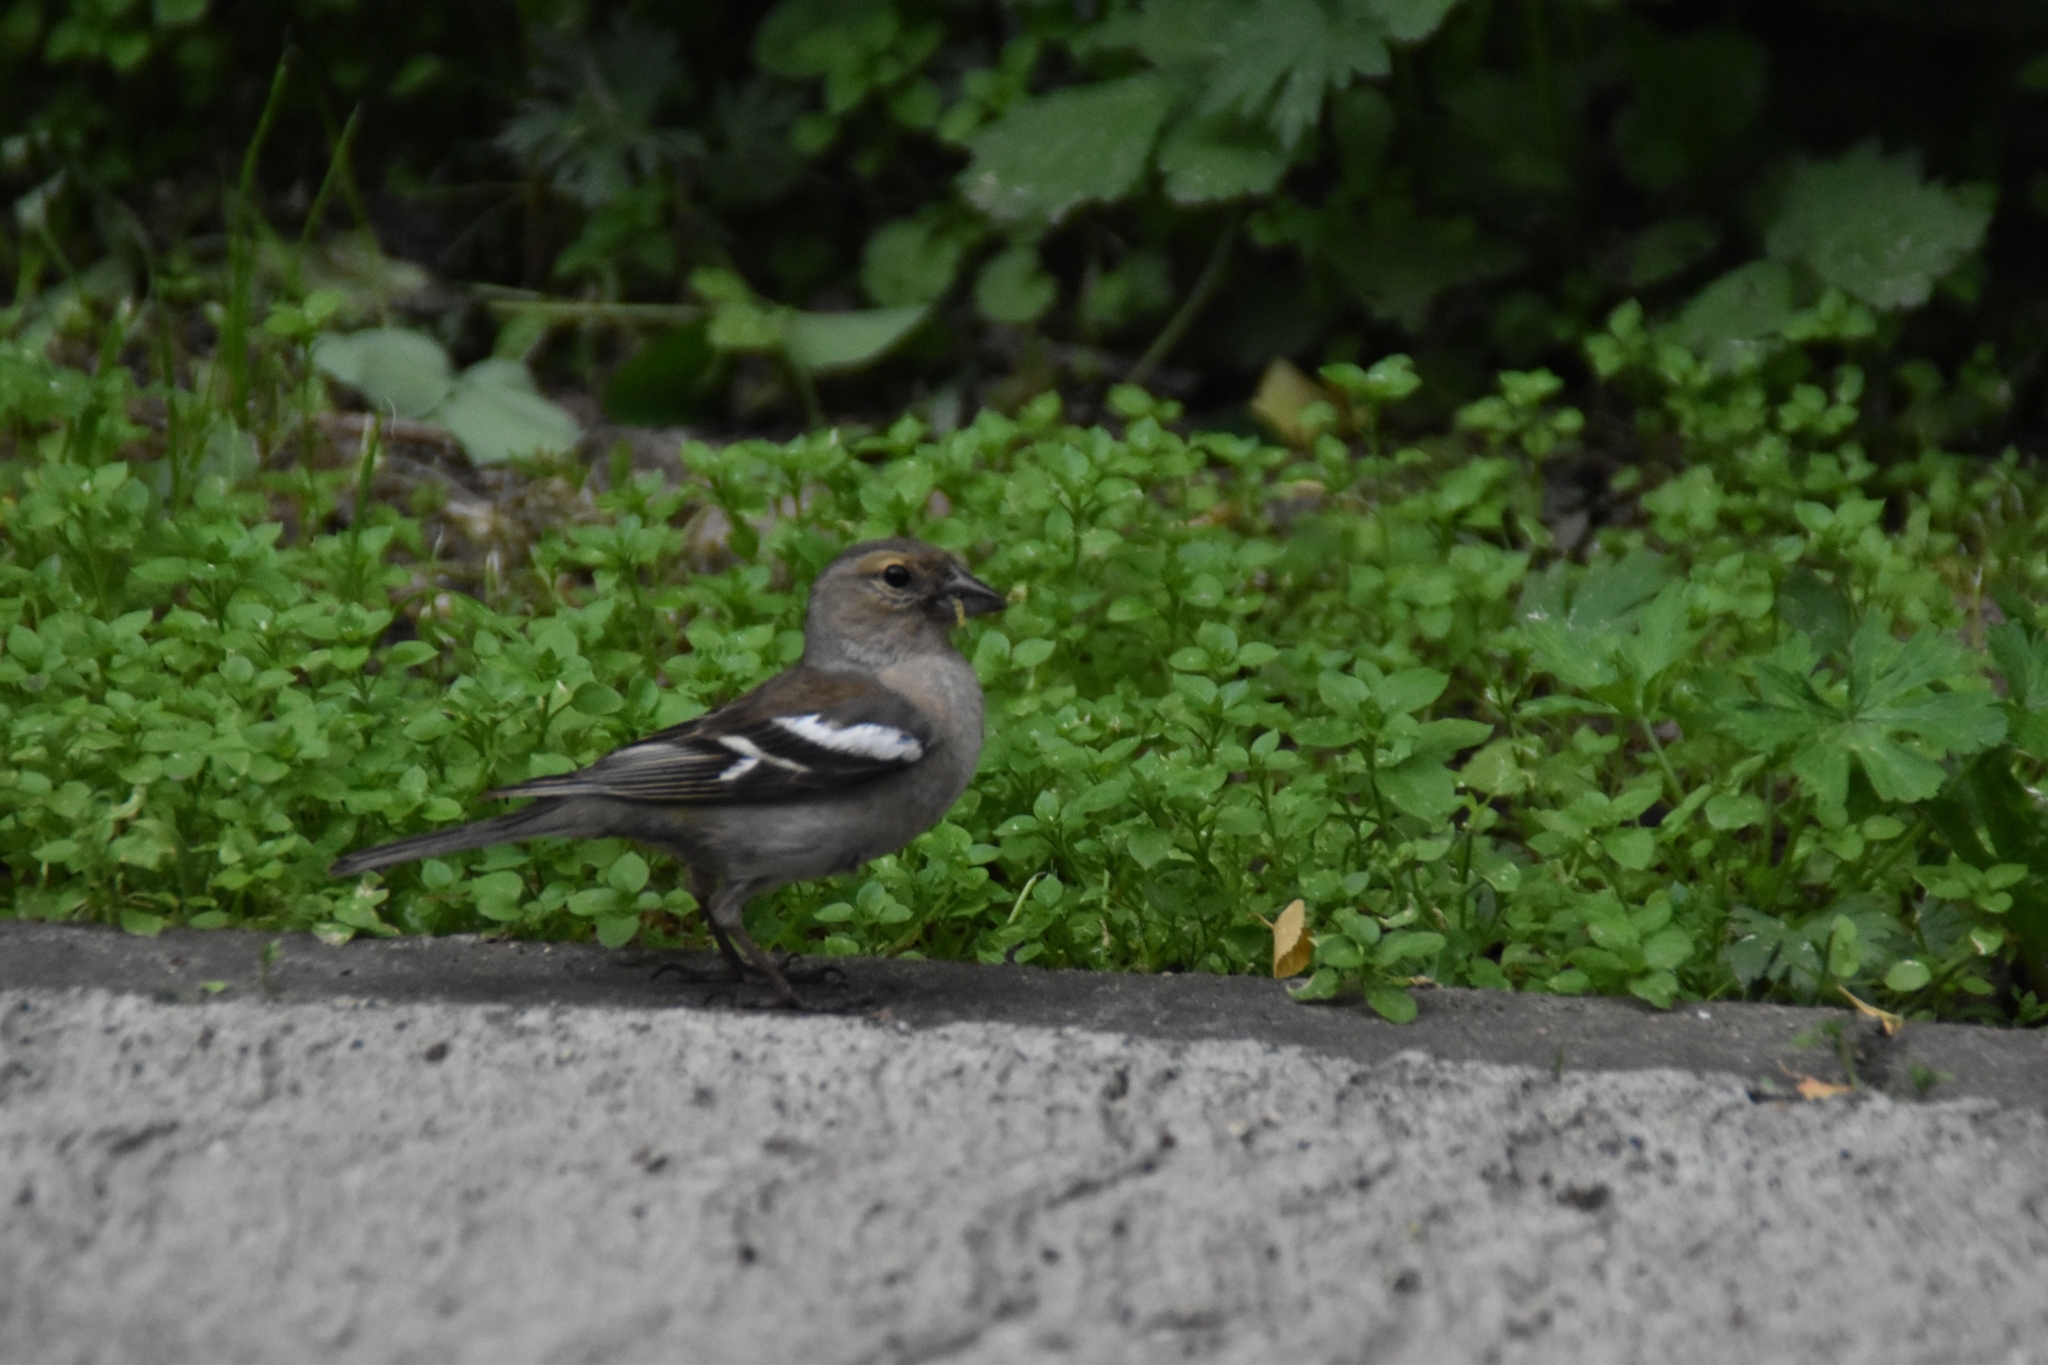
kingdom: Animalia
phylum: Chordata
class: Aves
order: Passeriformes
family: Fringillidae
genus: Fringilla
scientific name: Fringilla coelebs
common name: Common chaffinch
